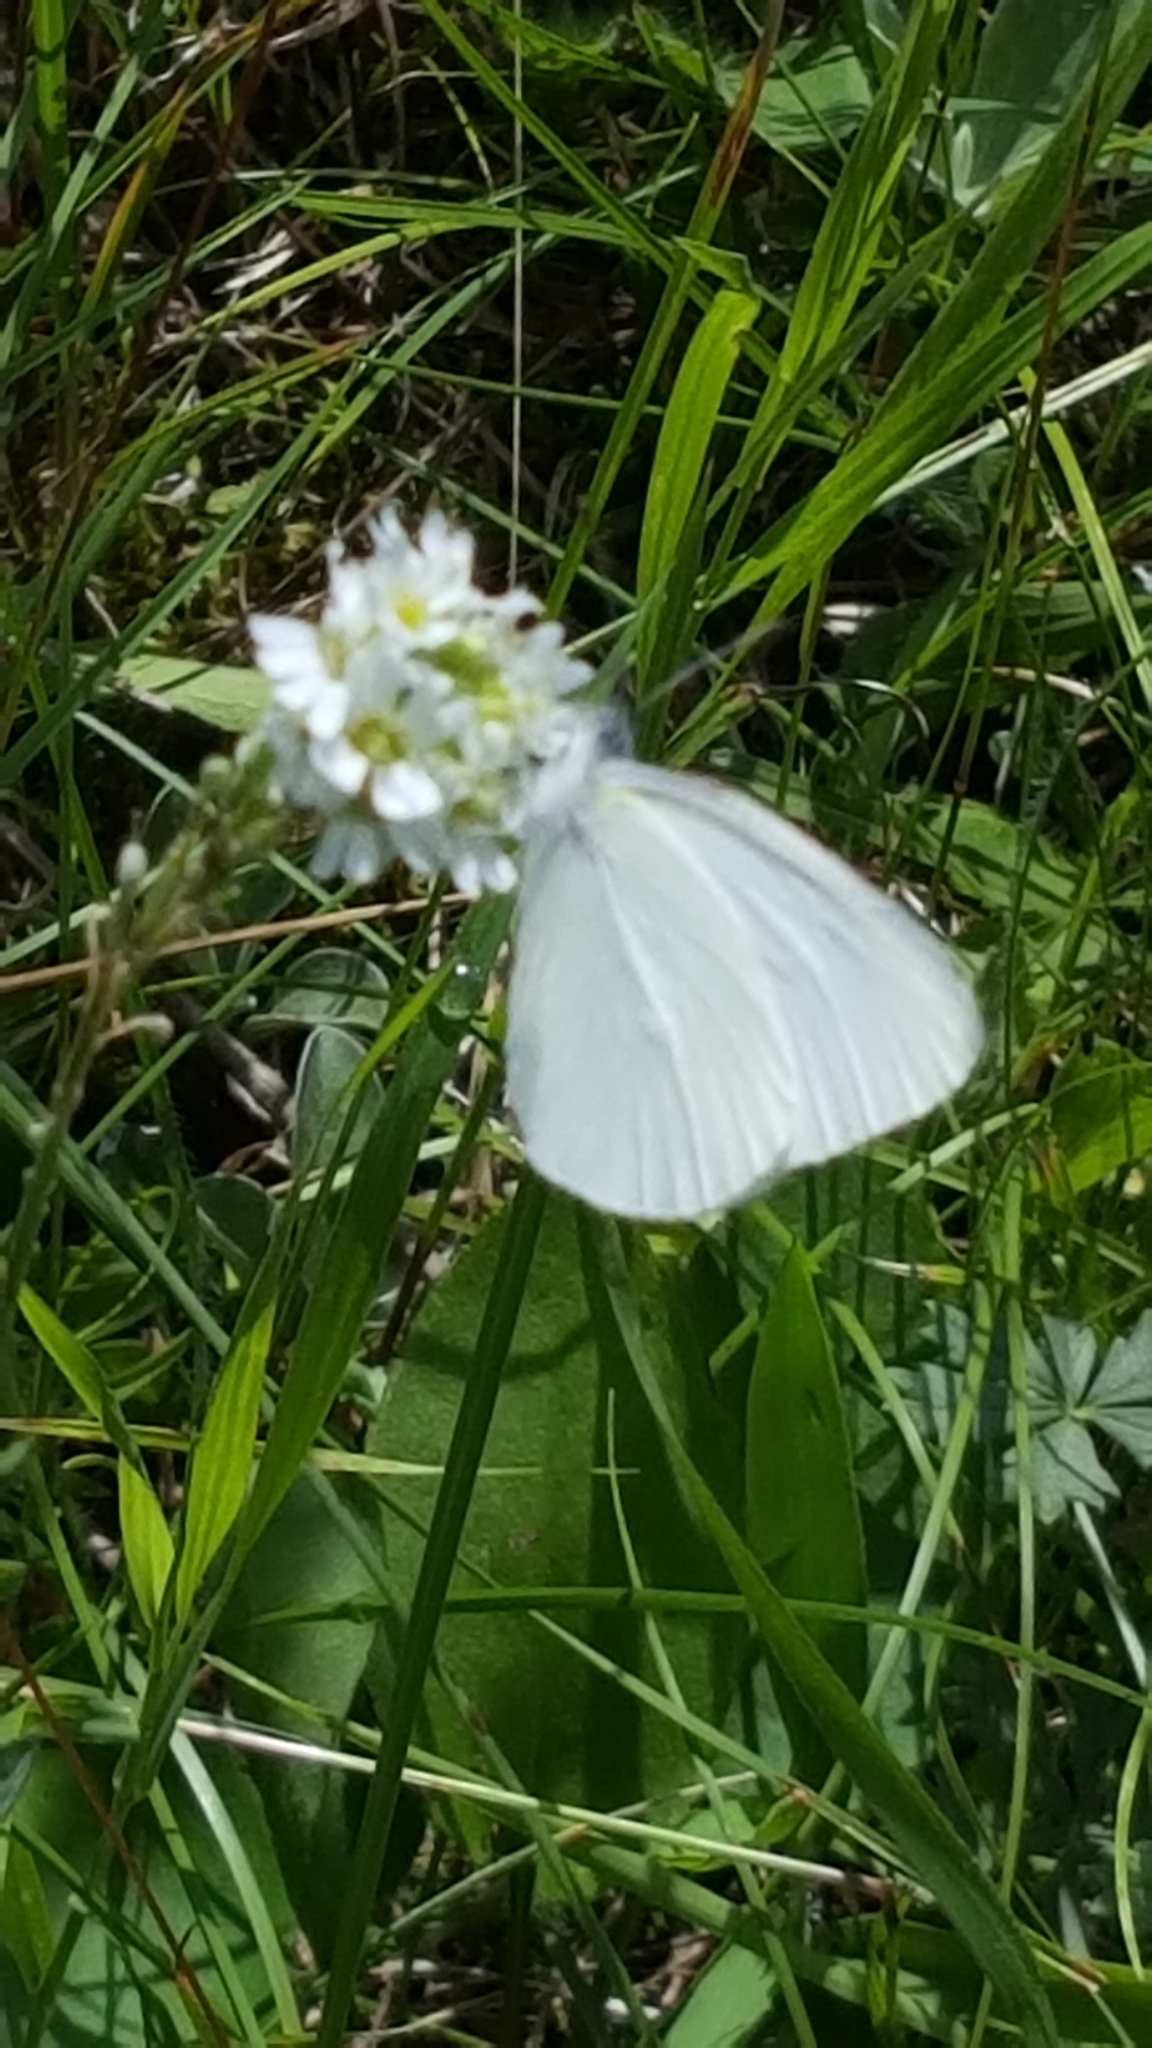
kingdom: Animalia
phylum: Arthropoda
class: Insecta
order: Lepidoptera
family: Pieridae
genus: Pieris
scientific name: Pieris oleracea
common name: Mustard white
